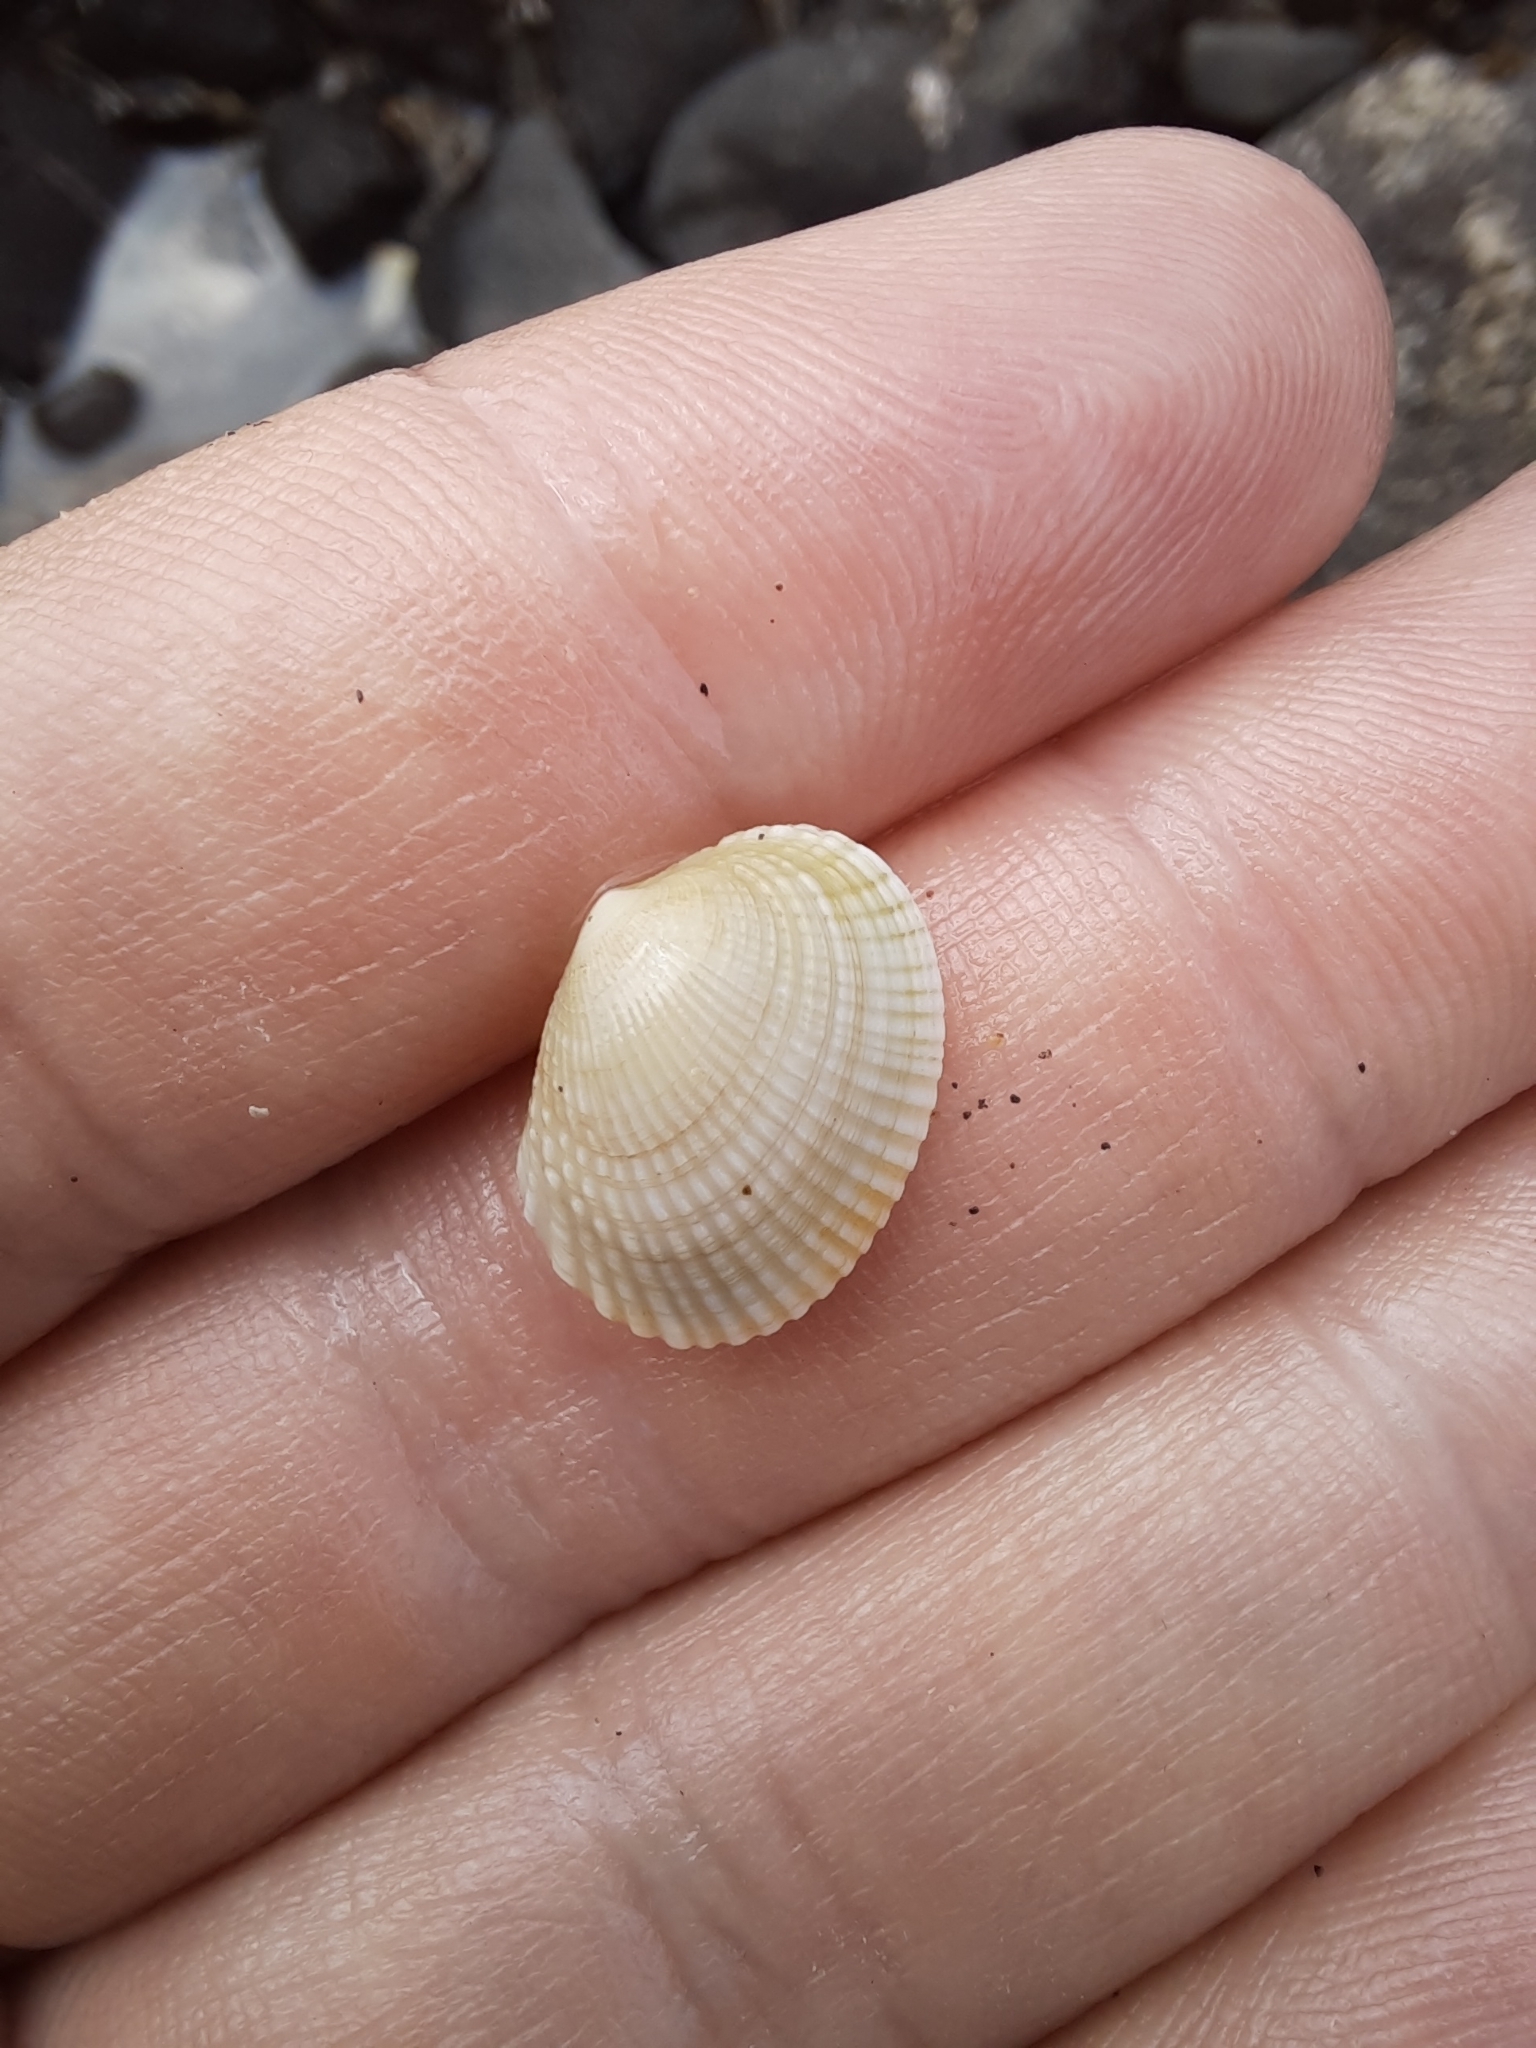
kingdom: Animalia
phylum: Mollusca
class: Bivalvia
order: Venerida
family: Veneridae
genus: Leukoma
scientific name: Leukoma crassicosta
